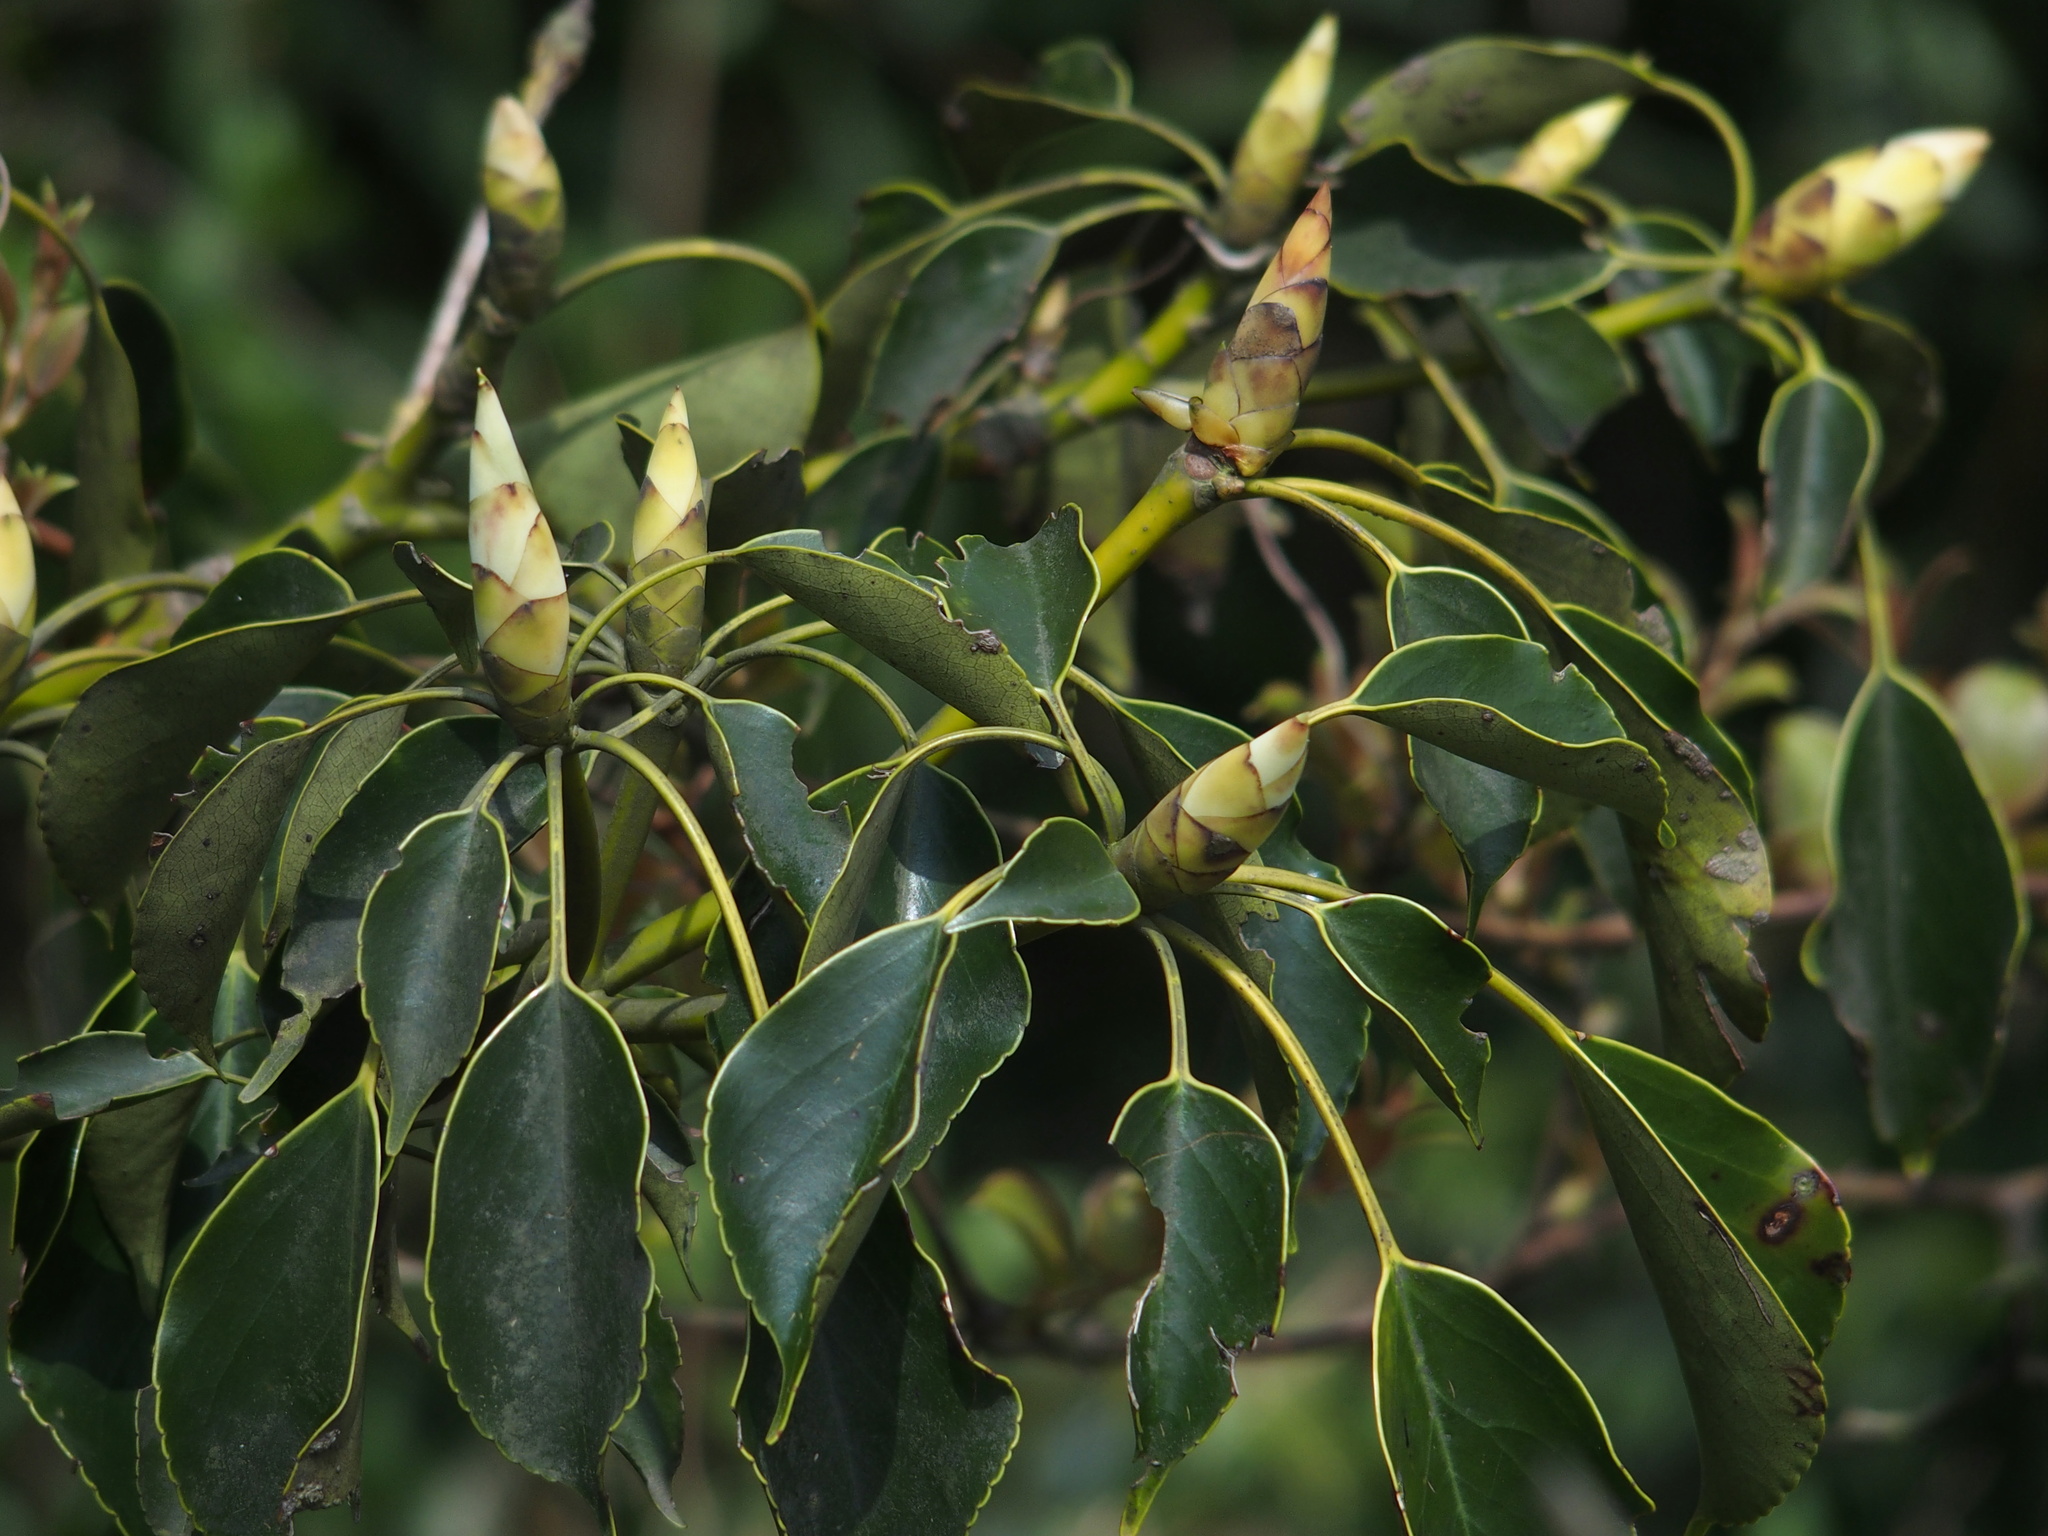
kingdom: Plantae
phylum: Tracheophyta
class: Magnoliopsida
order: Trochodendrales
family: Trochodendraceae
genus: Trochodendron
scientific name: Trochodendron aralioides
